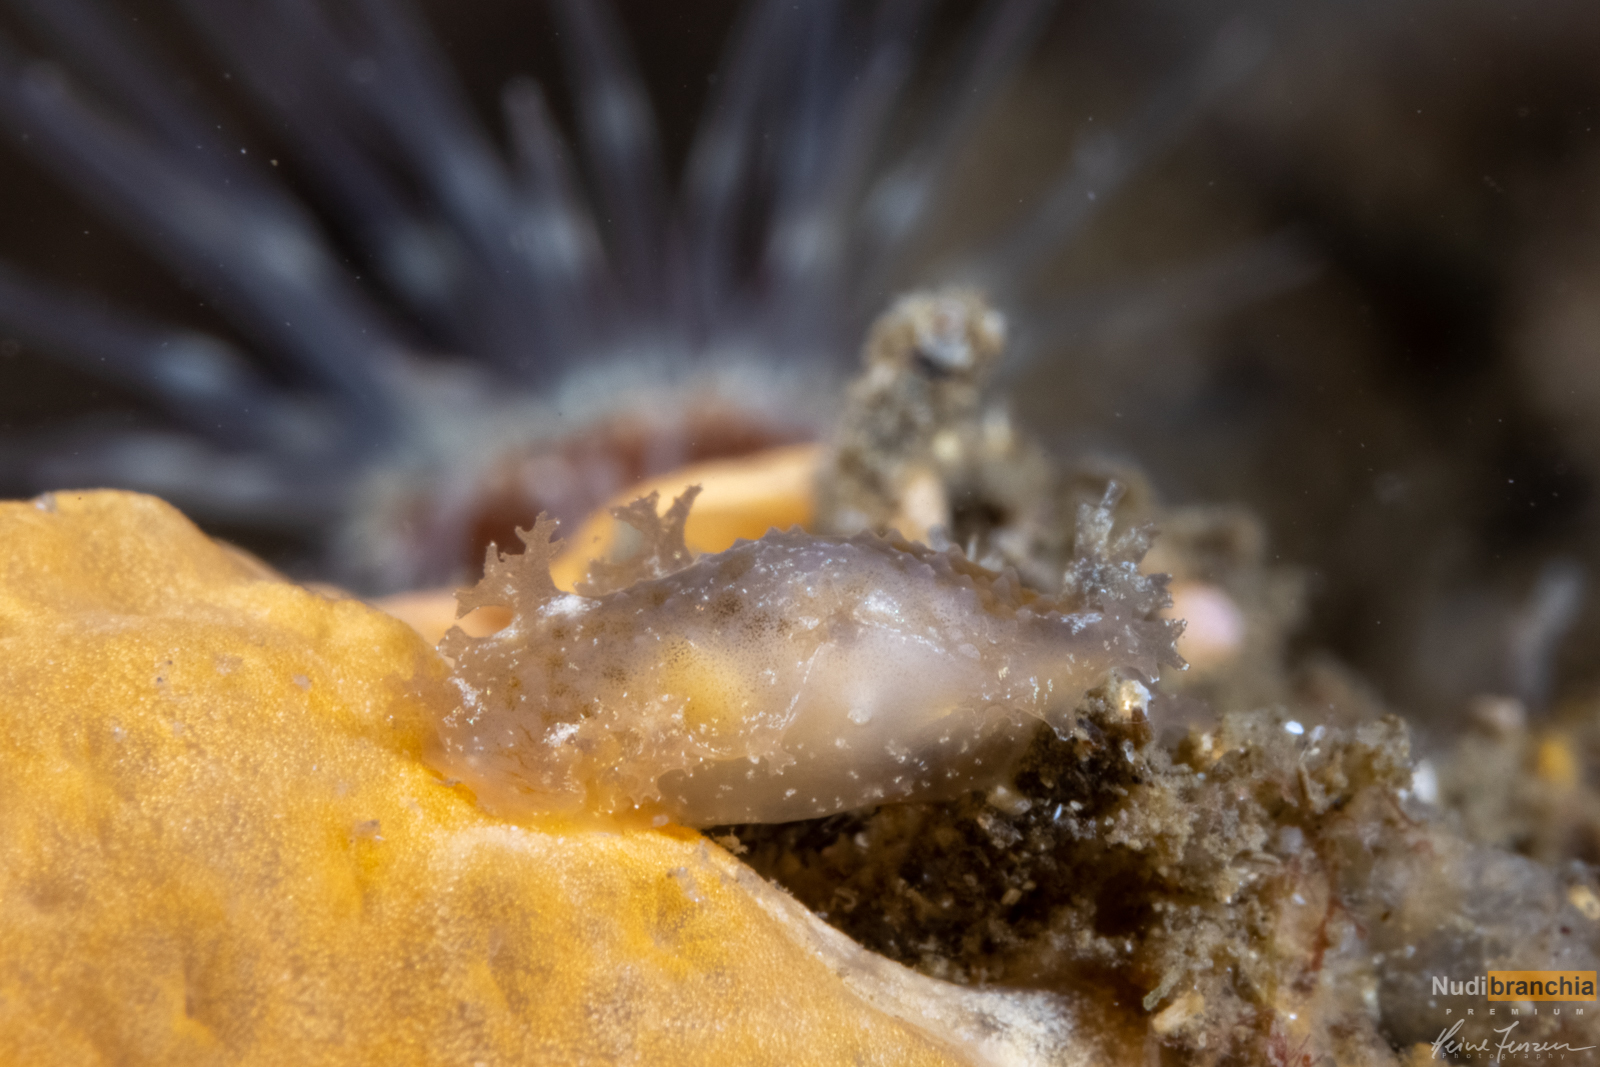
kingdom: Animalia
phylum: Mollusca
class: Gastropoda
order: Nudibranchia
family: Tritoniidae
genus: Tritonia
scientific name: Tritonia hombergii
